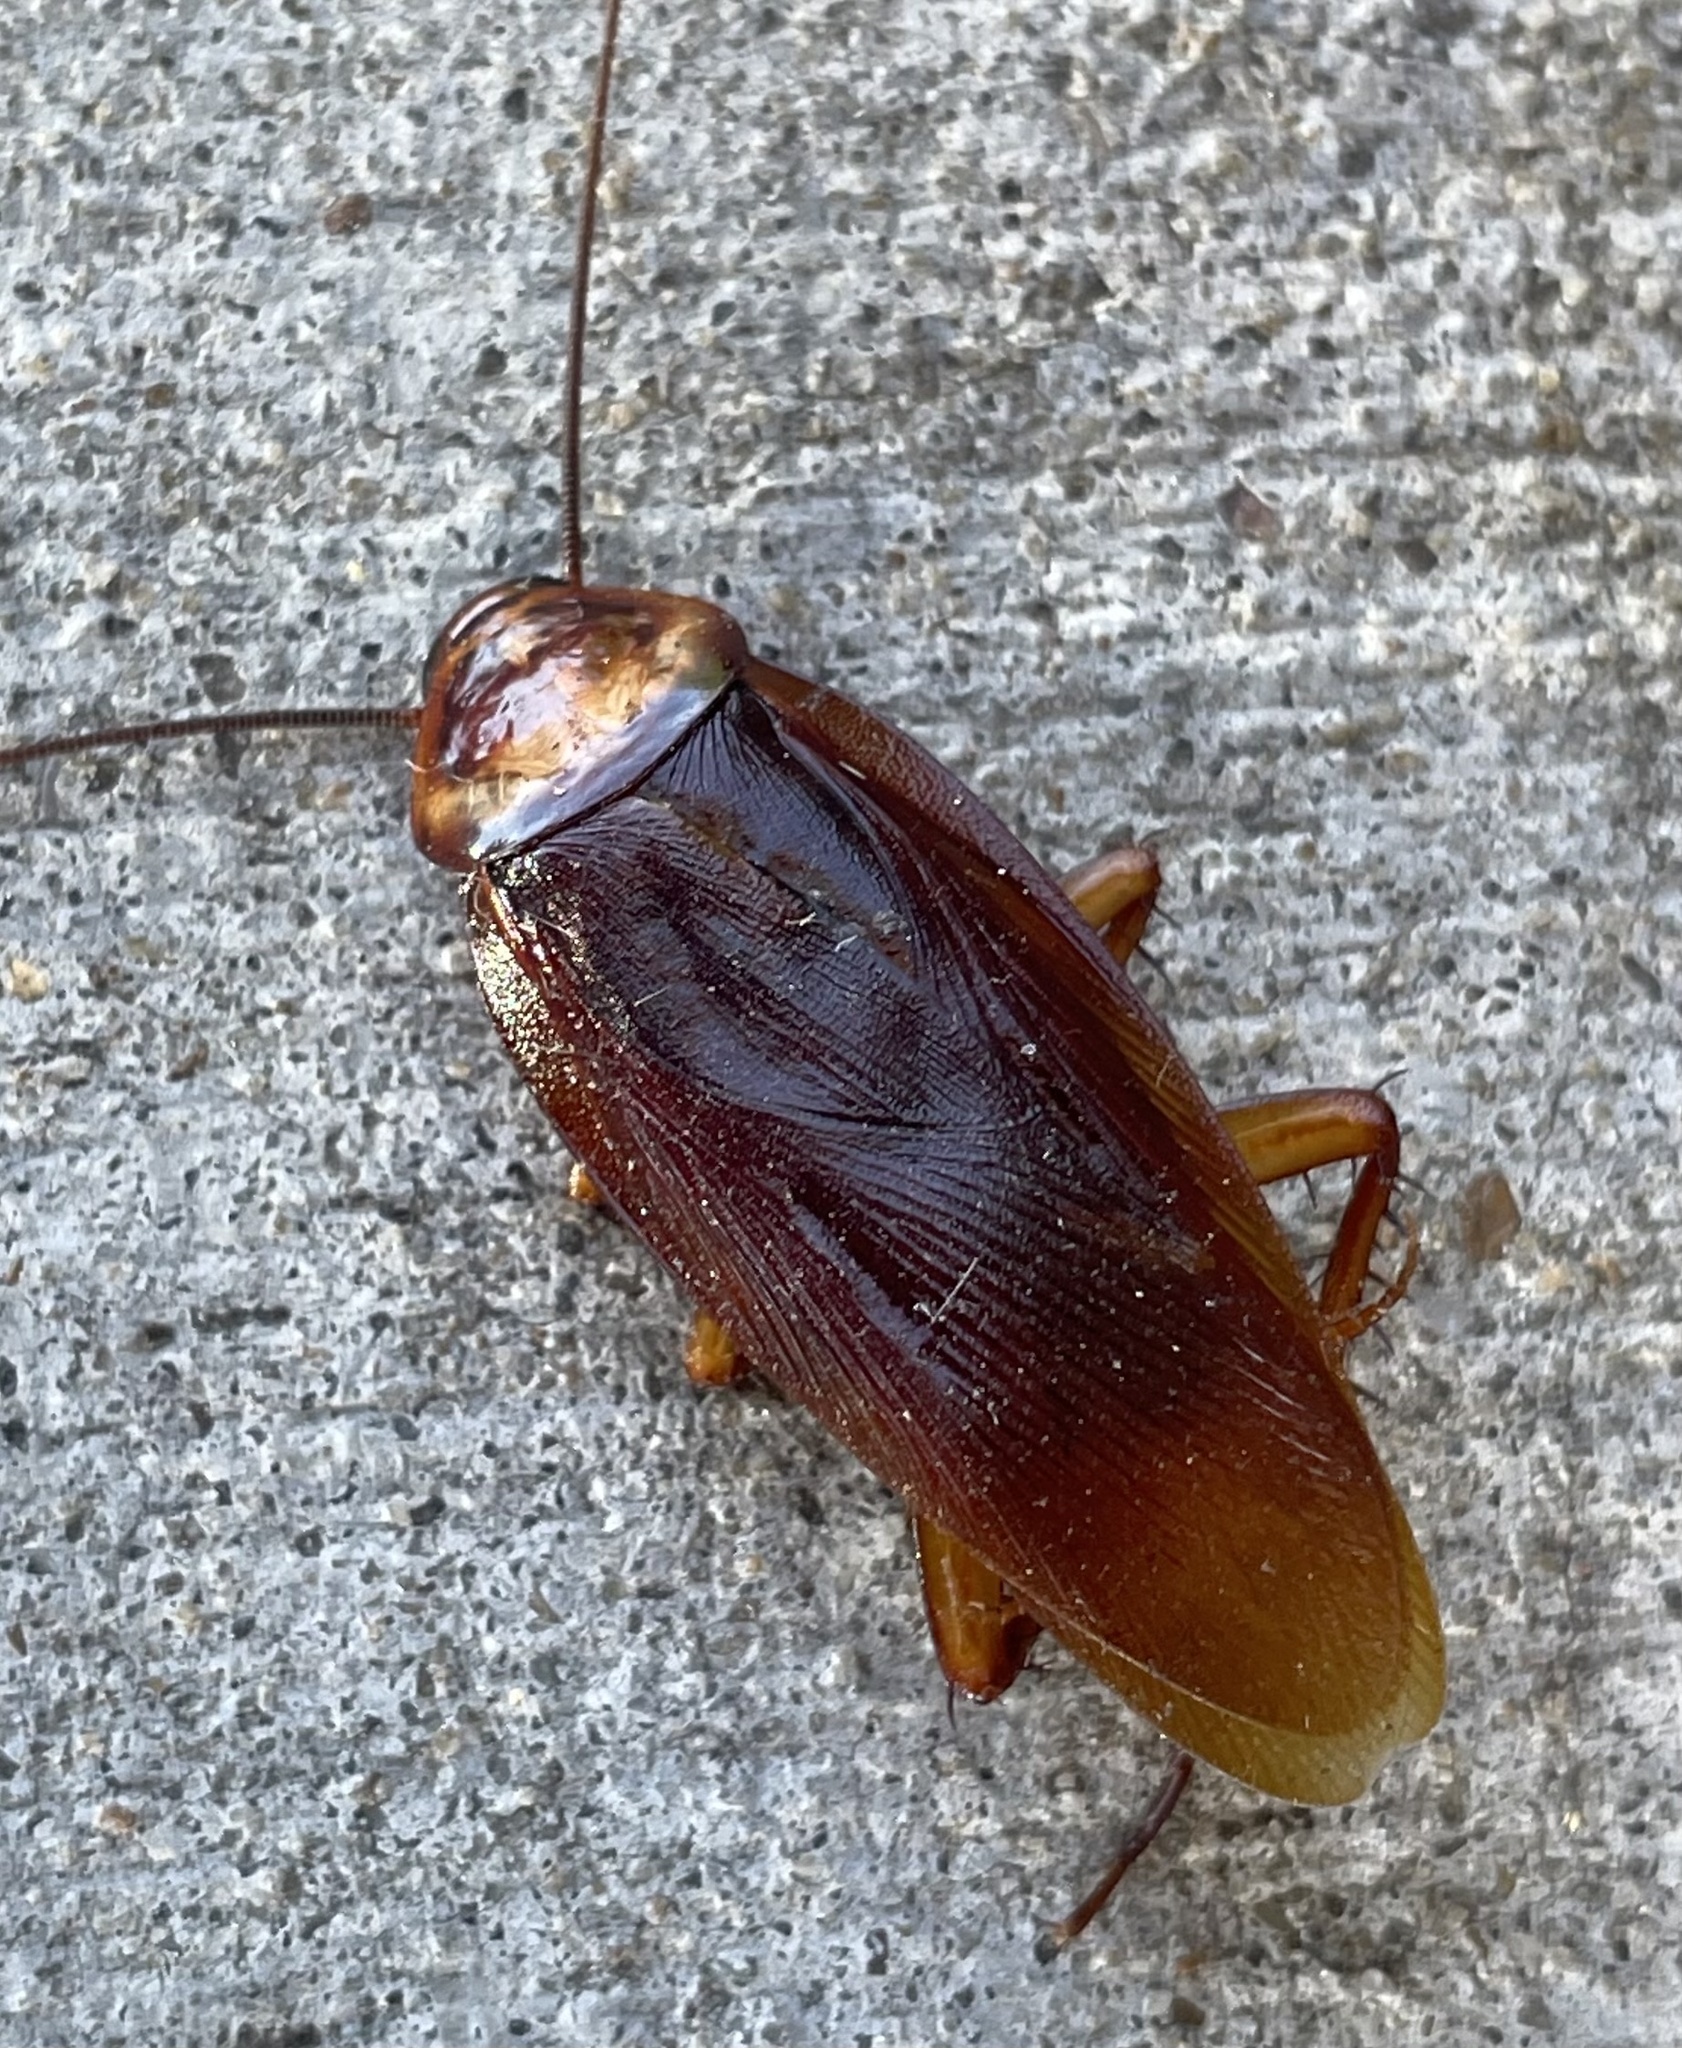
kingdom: Animalia
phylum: Arthropoda
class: Insecta
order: Blattodea
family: Blattidae
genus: Periplaneta
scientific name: Periplaneta americana
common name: American cockroach
